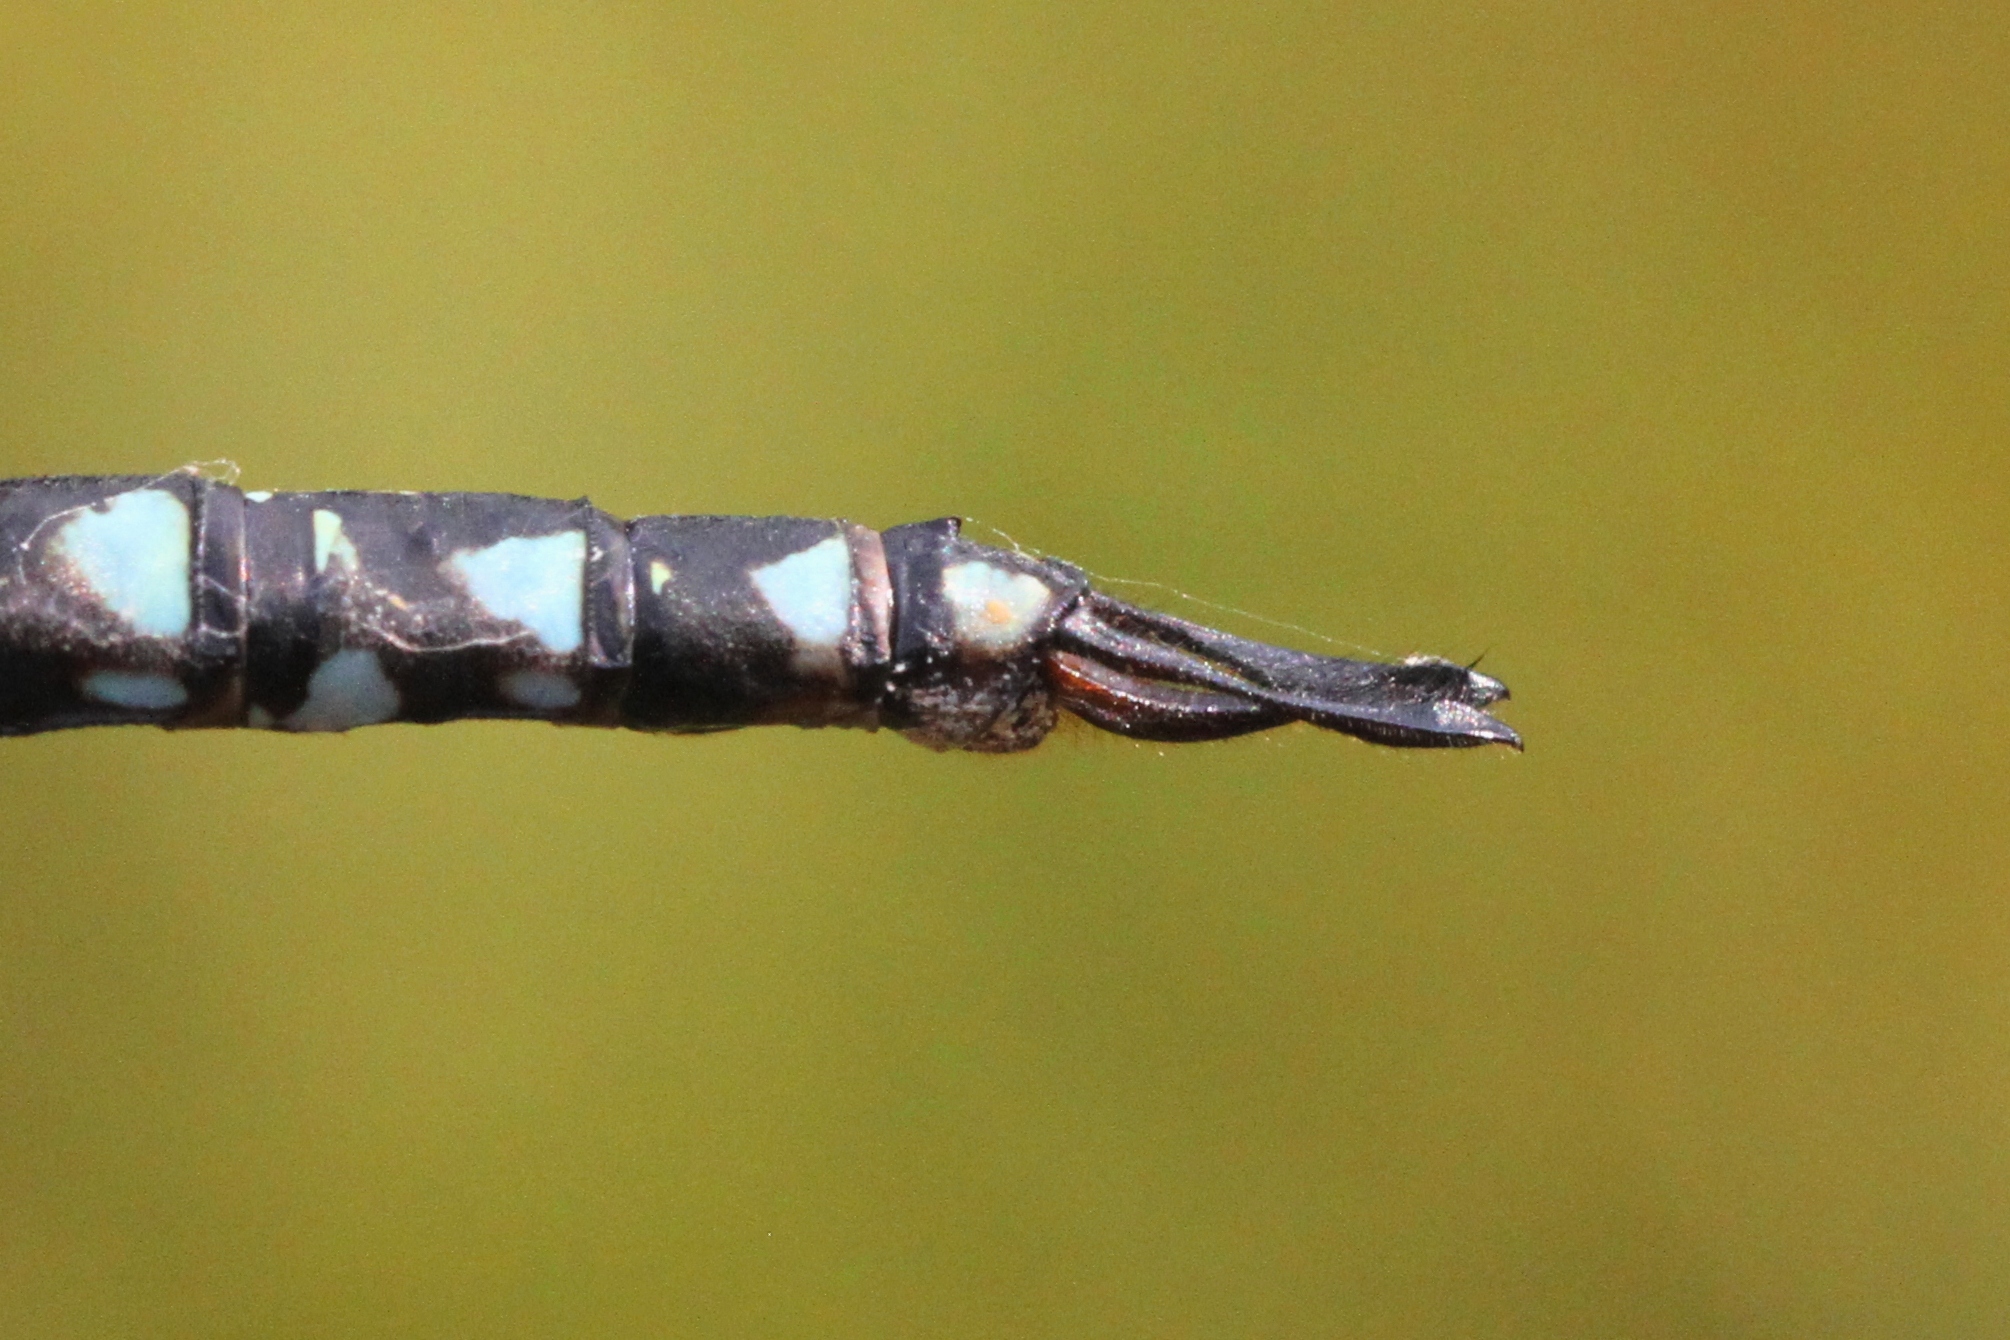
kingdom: Animalia
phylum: Arthropoda
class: Insecta
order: Odonata
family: Aeshnidae
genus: Aeshna
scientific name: Aeshna subarctica
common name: Subarctic darner
